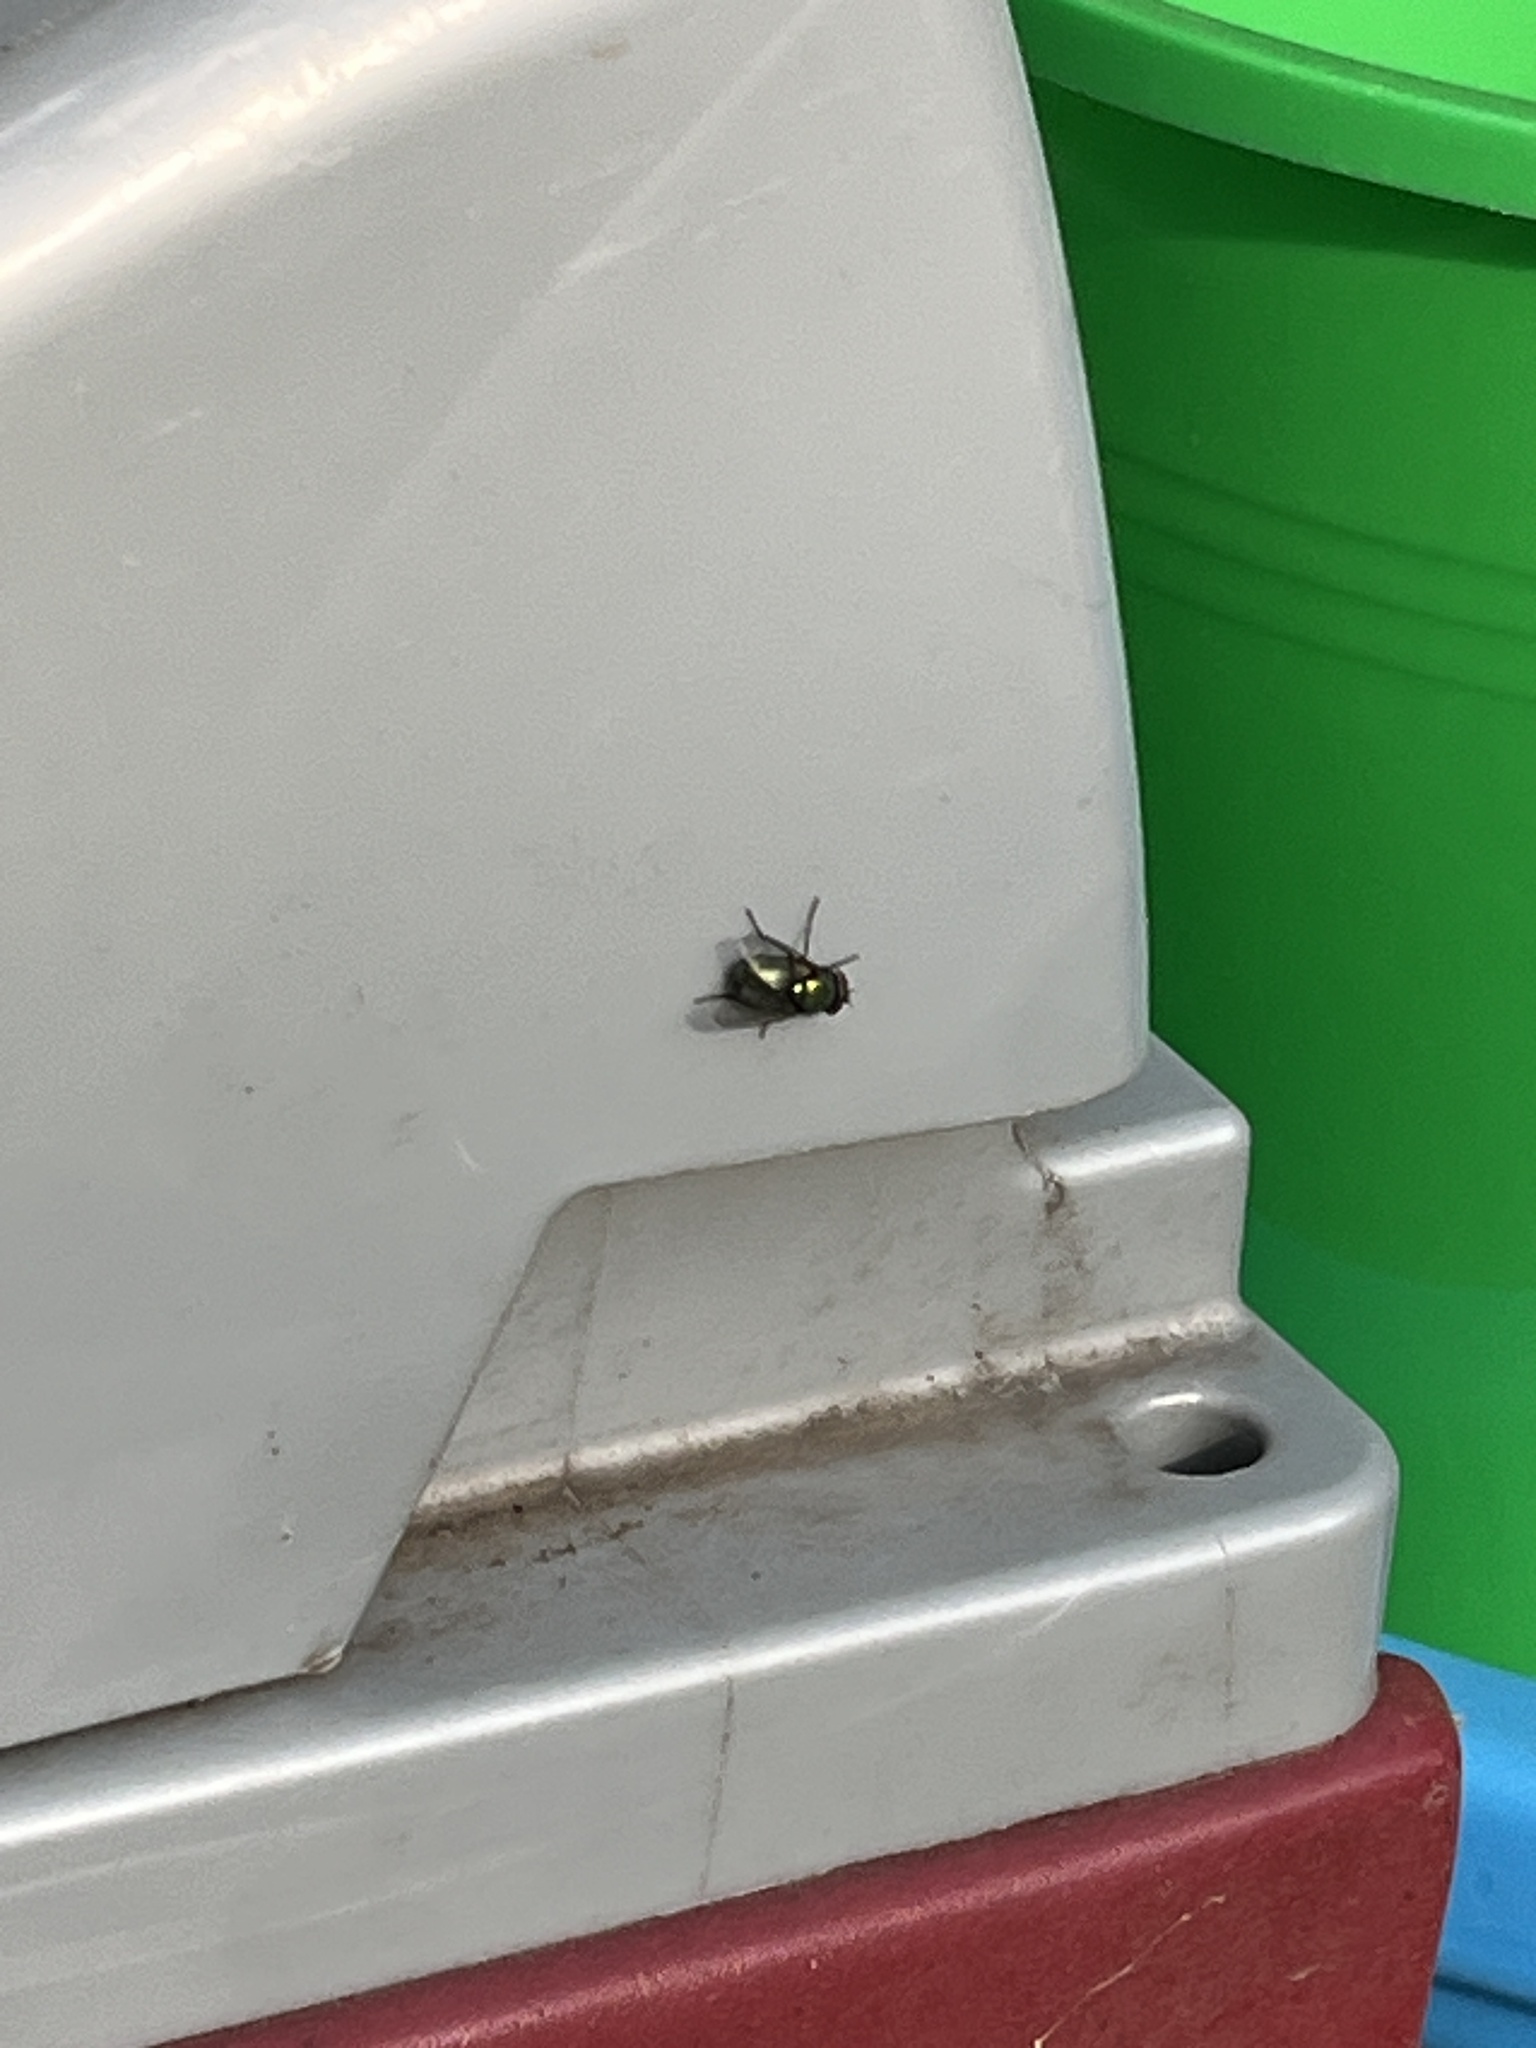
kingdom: Animalia
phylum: Arthropoda
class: Insecta
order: Diptera
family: Calliphoridae
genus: Lucilia
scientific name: Lucilia
